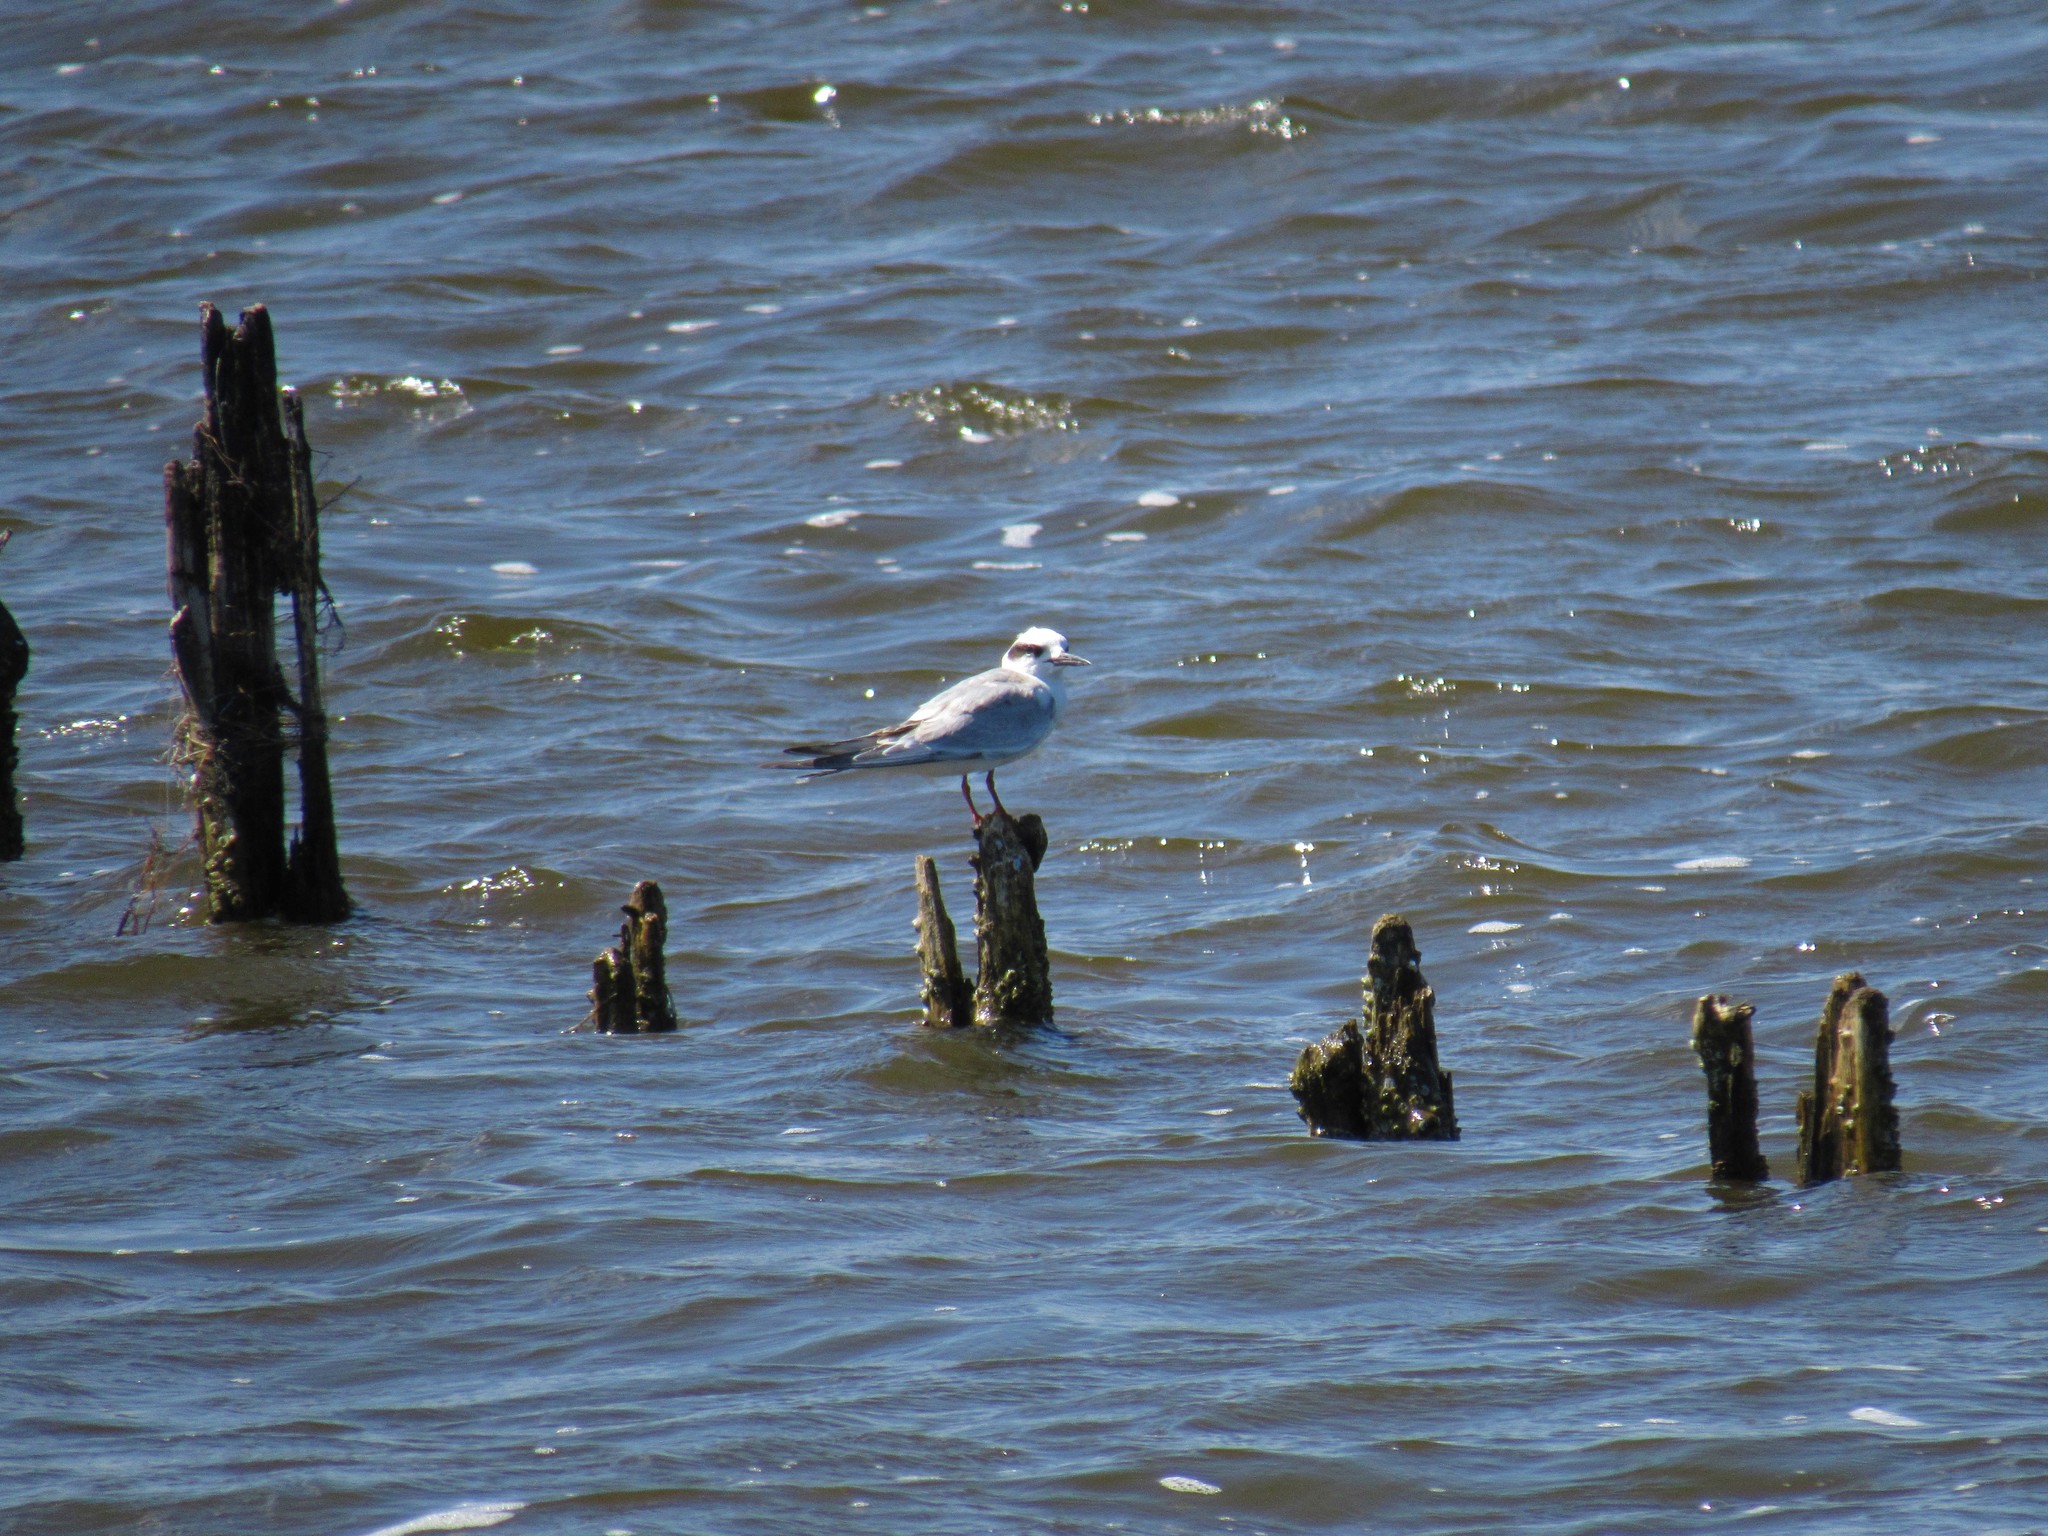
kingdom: Animalia
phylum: Chordata
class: Aves
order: Charadriiformes
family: Laridae
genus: Sterna
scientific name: Sterna forsteri
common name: Forster's tern
